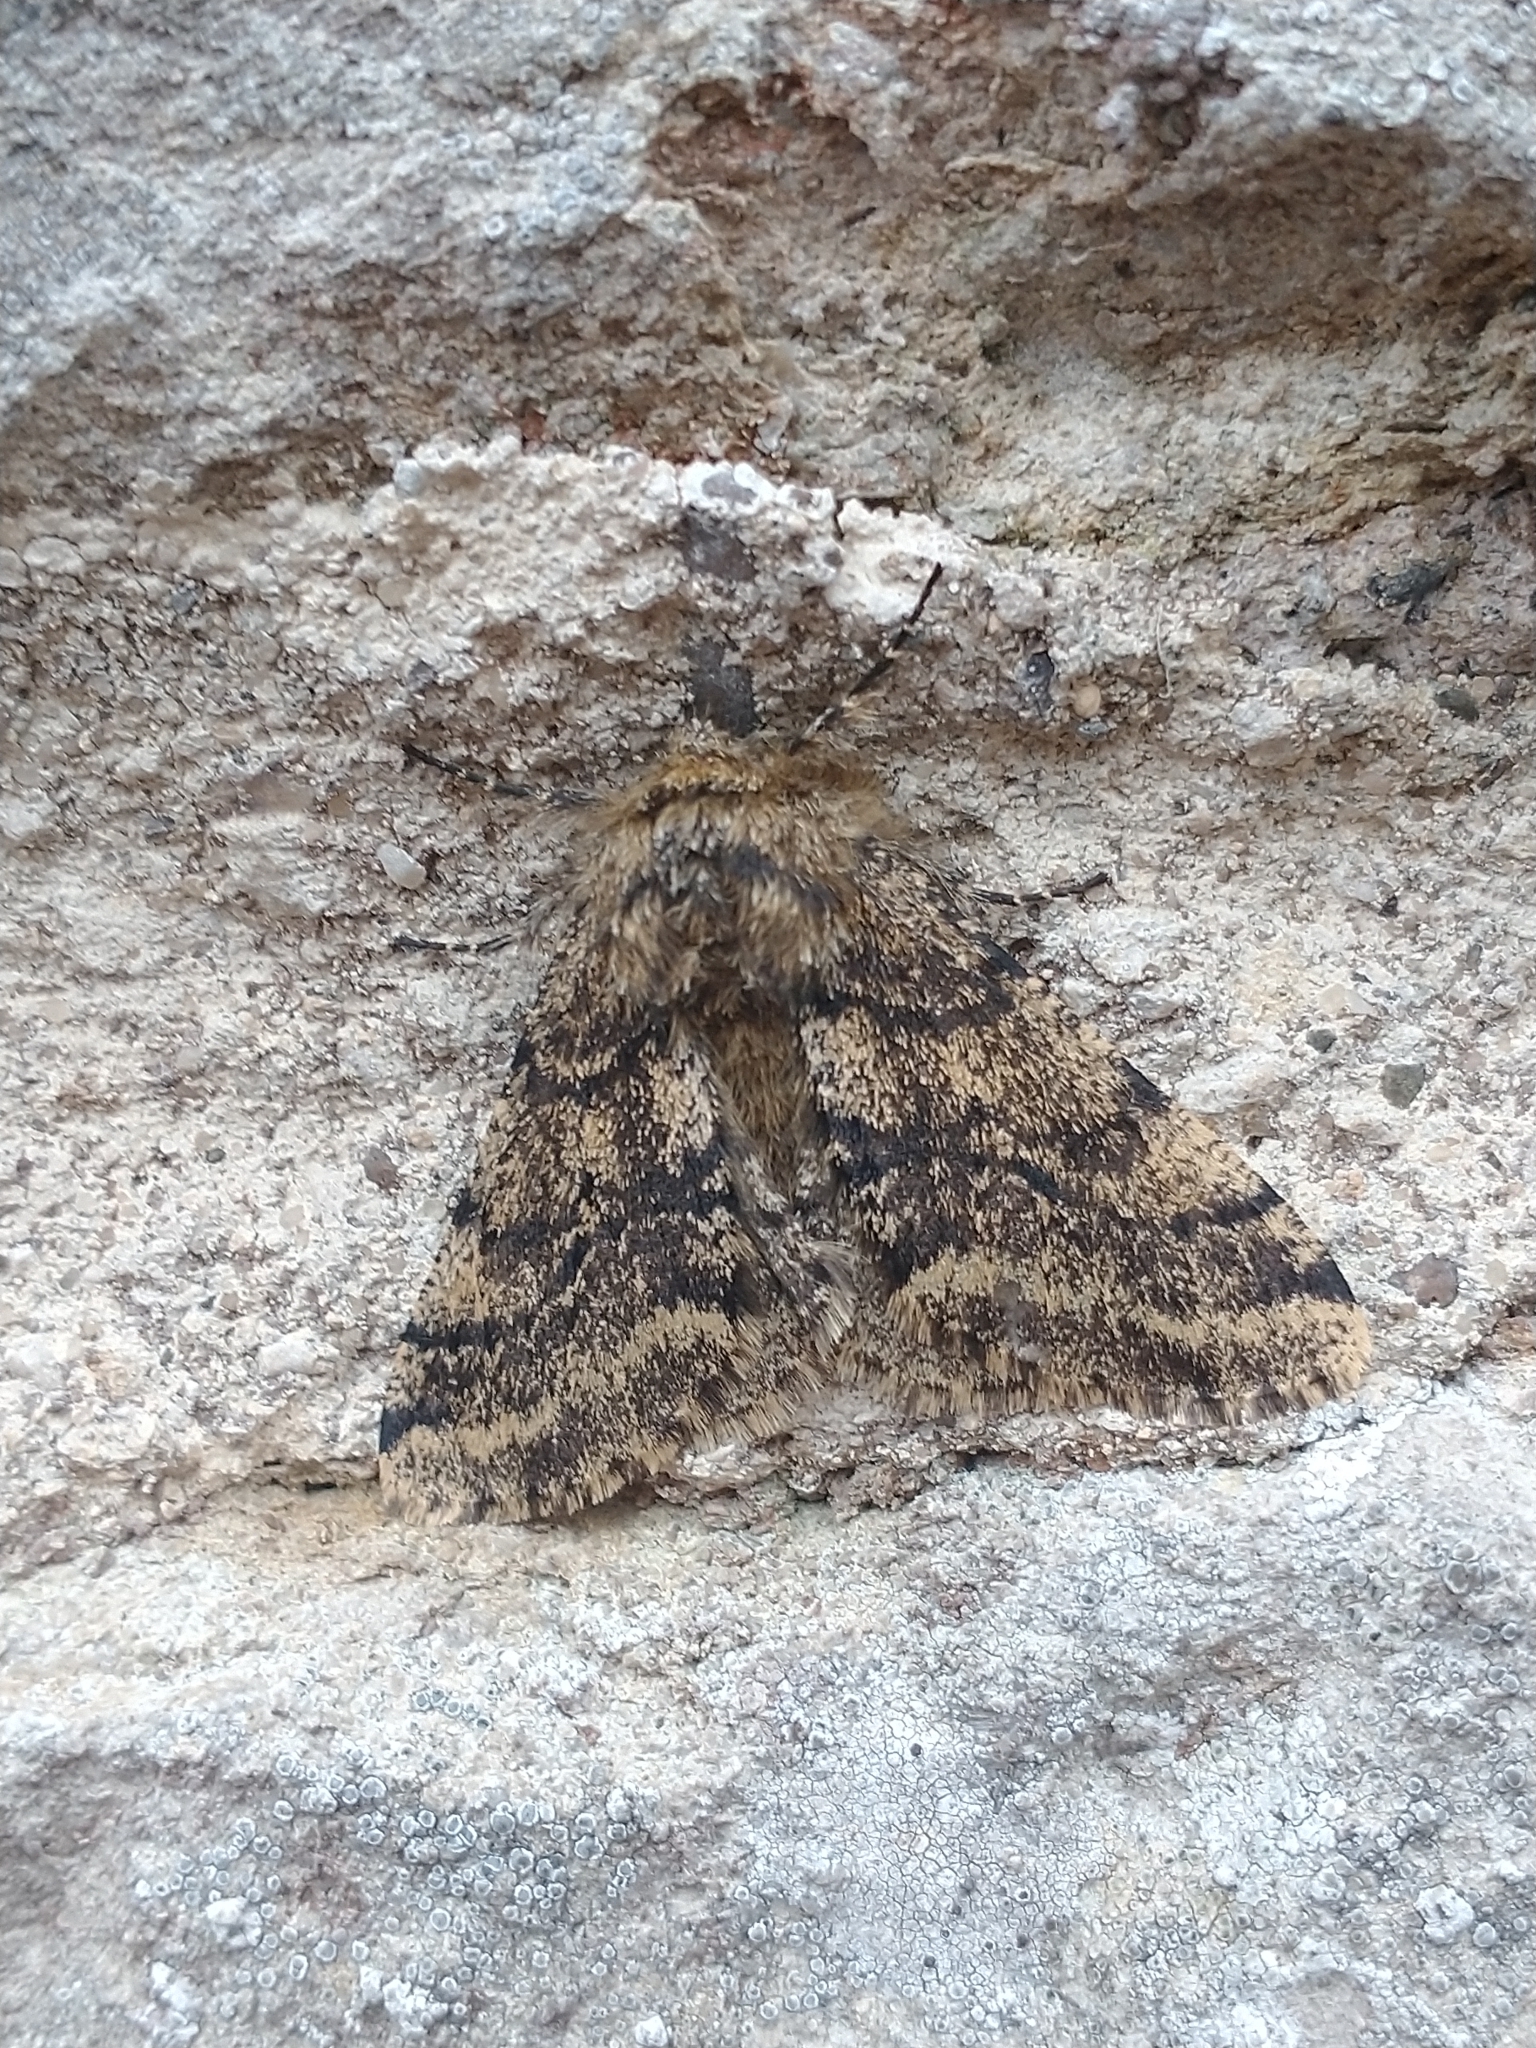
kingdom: Animalia
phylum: Arthropoda
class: Insecta
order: Lepidoptera
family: Geometridae
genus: Lycia
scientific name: Lycia hirtaria
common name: Brindled beauty
